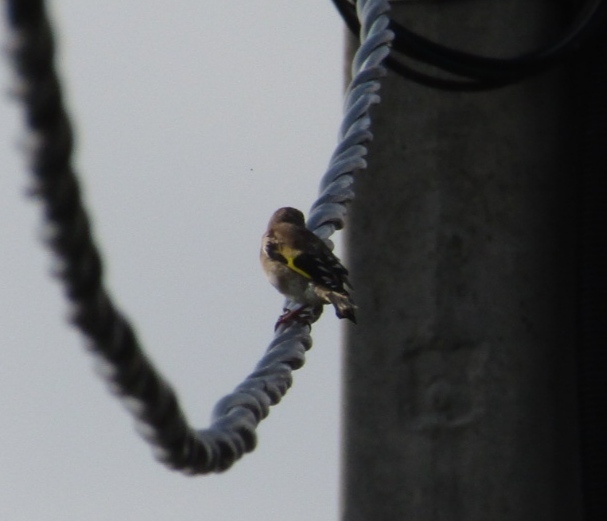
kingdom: Animalia
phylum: Chordata
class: Aves
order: Passeriformes
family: Fringillidae
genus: Carduelis
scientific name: Carduelis carduelis
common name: European goldfinch
